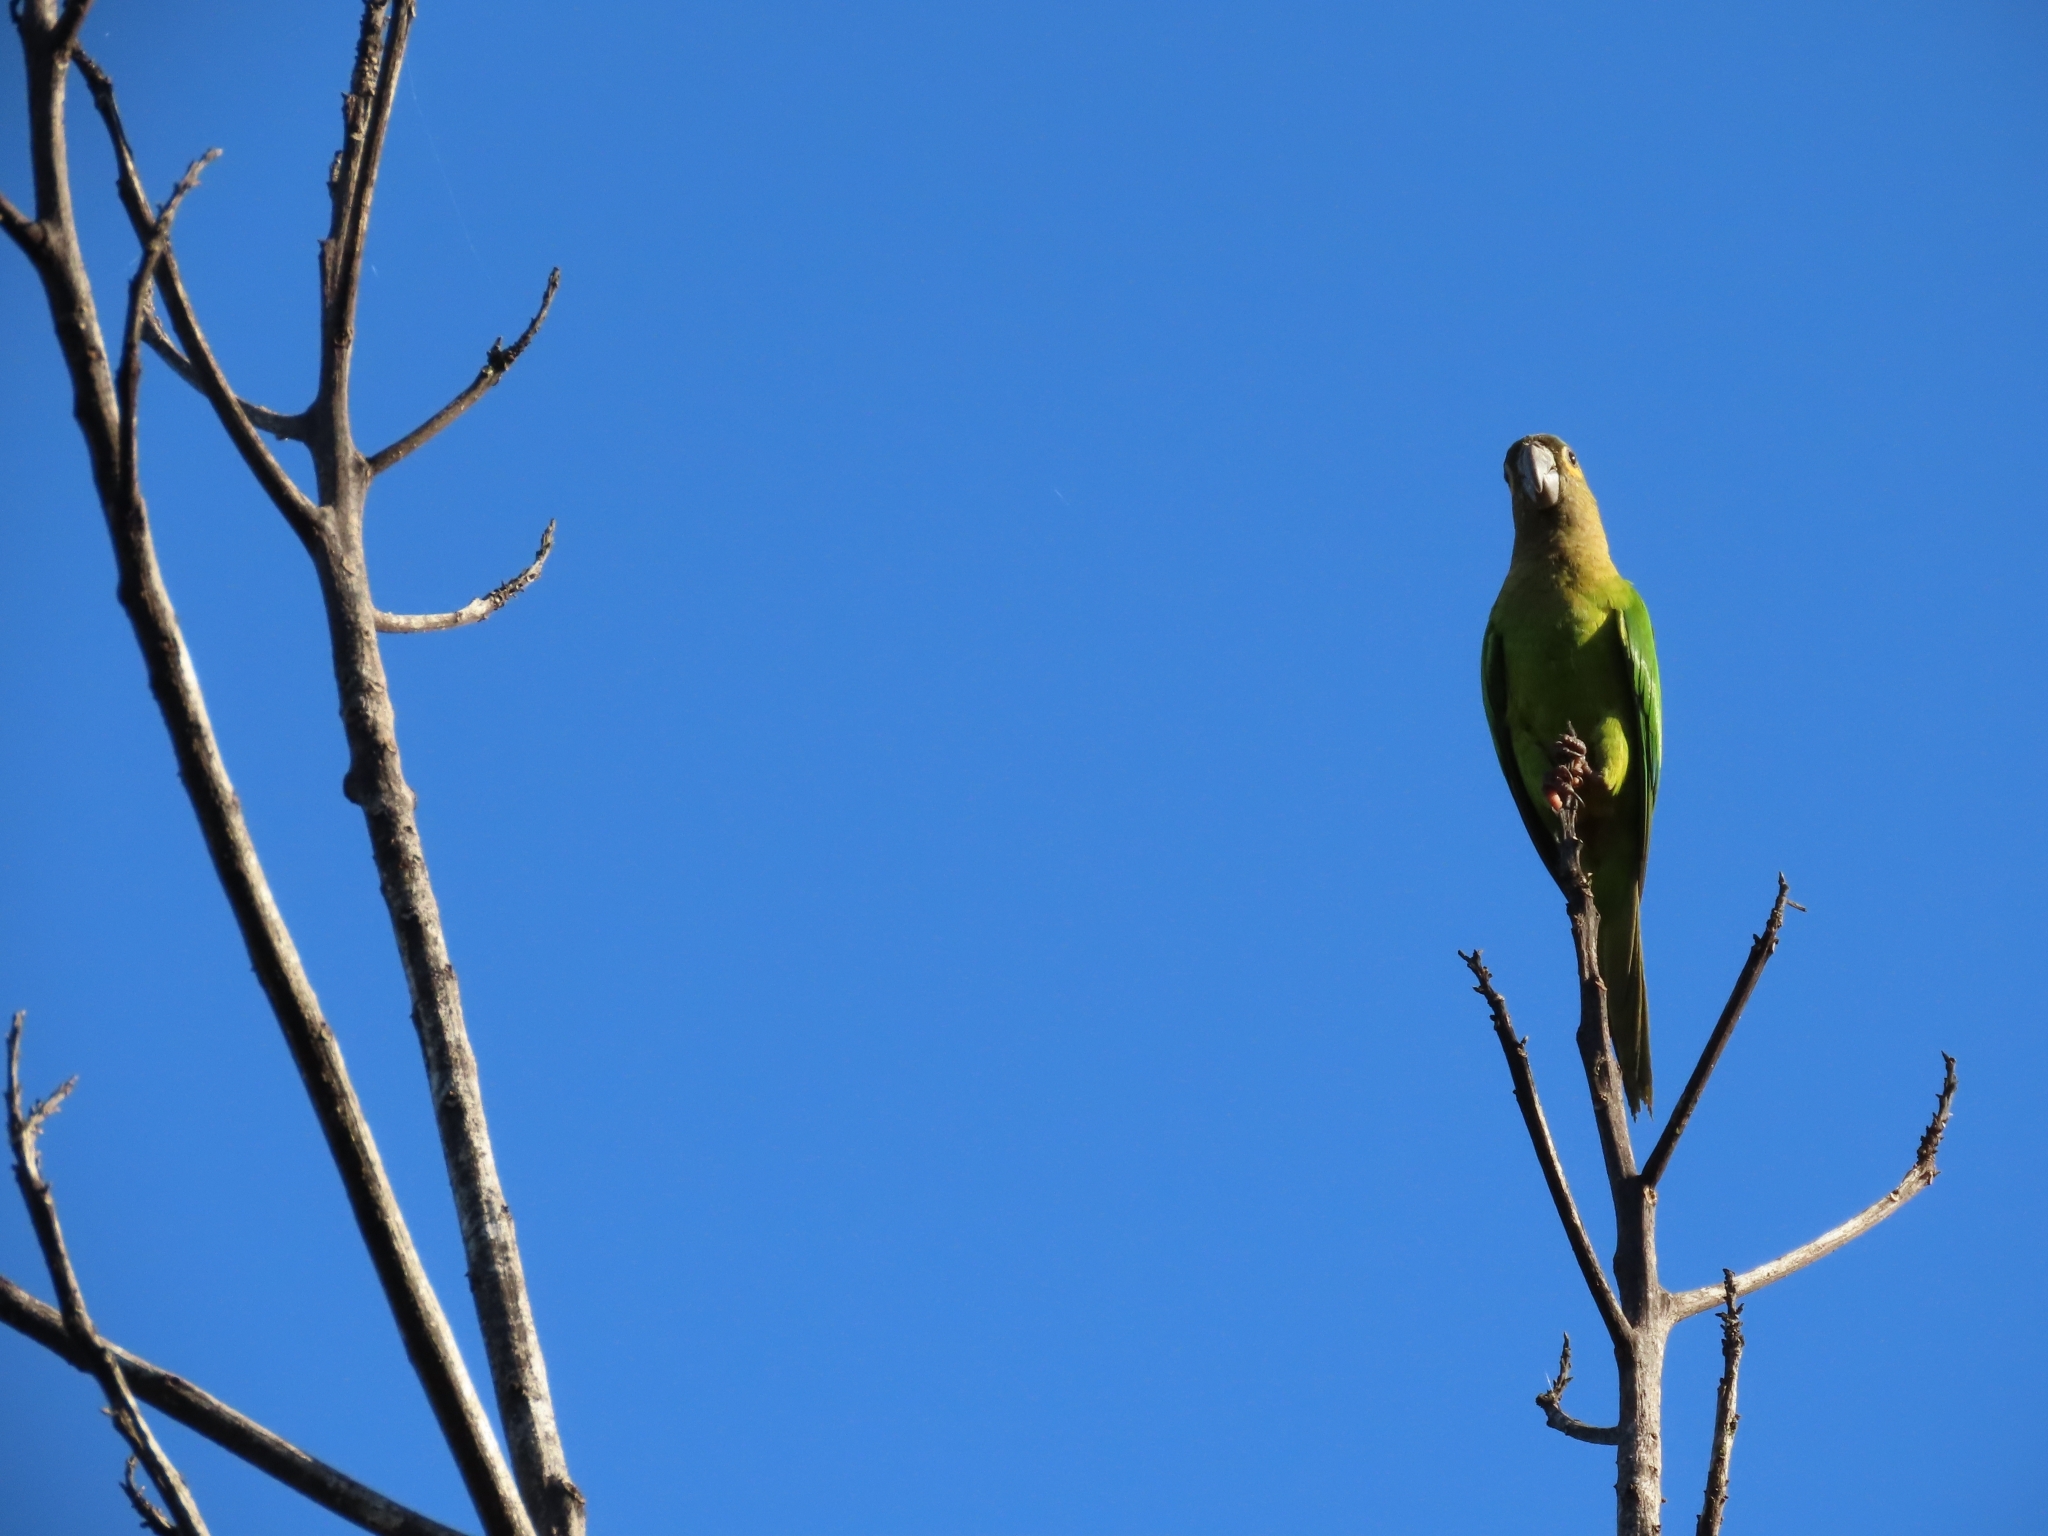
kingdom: Animalia
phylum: Chordata
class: Aves
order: Psittaciformes
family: Psittacidae
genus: Aratinga
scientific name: Aratinga pertinax
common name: Brown-throated parakeet
